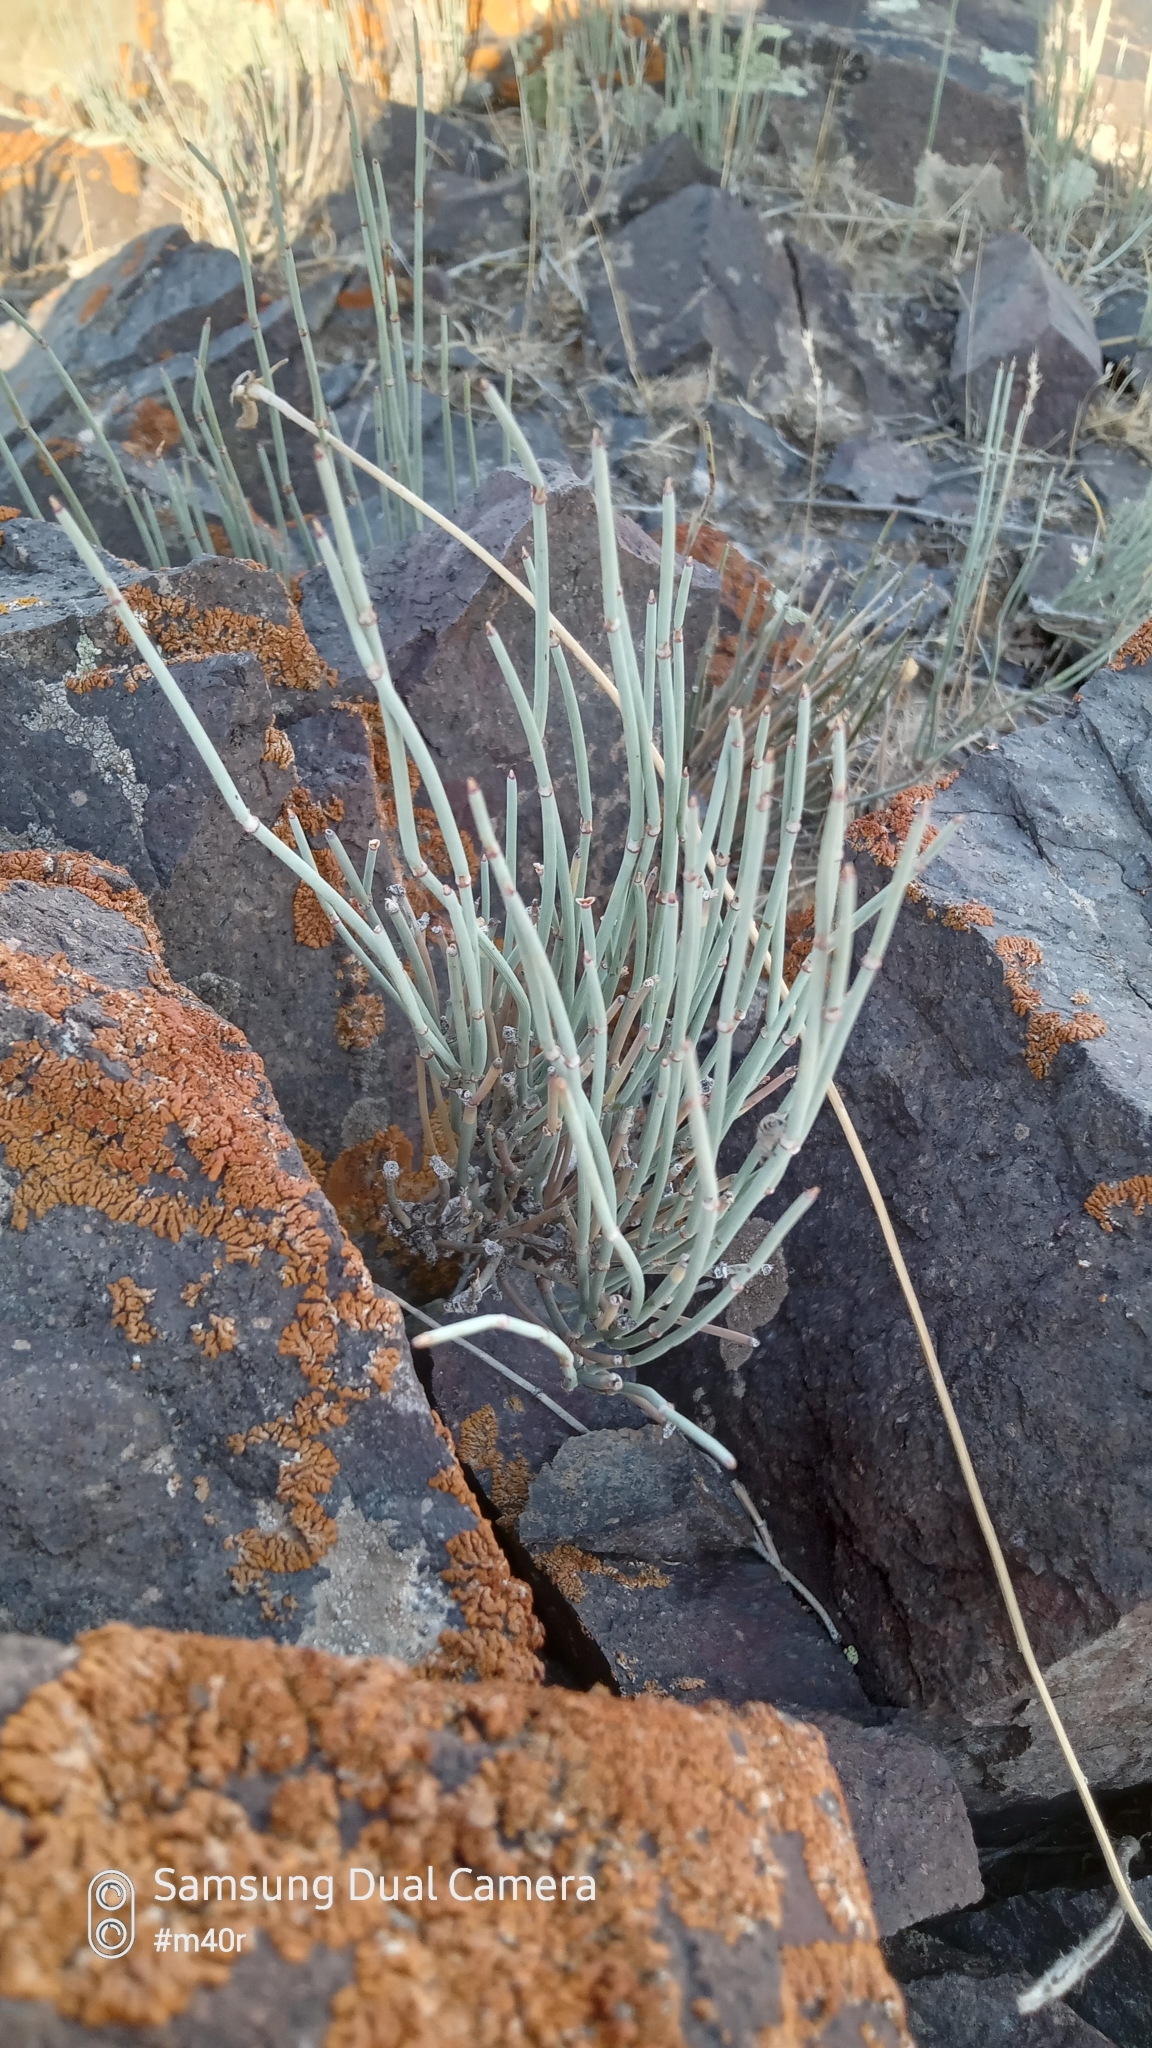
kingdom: Plantae
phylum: Tracheophyta
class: Gnetopsida
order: Ephedrales
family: Ephedraceae
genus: Ephedra
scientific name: Ephedra intermedia
